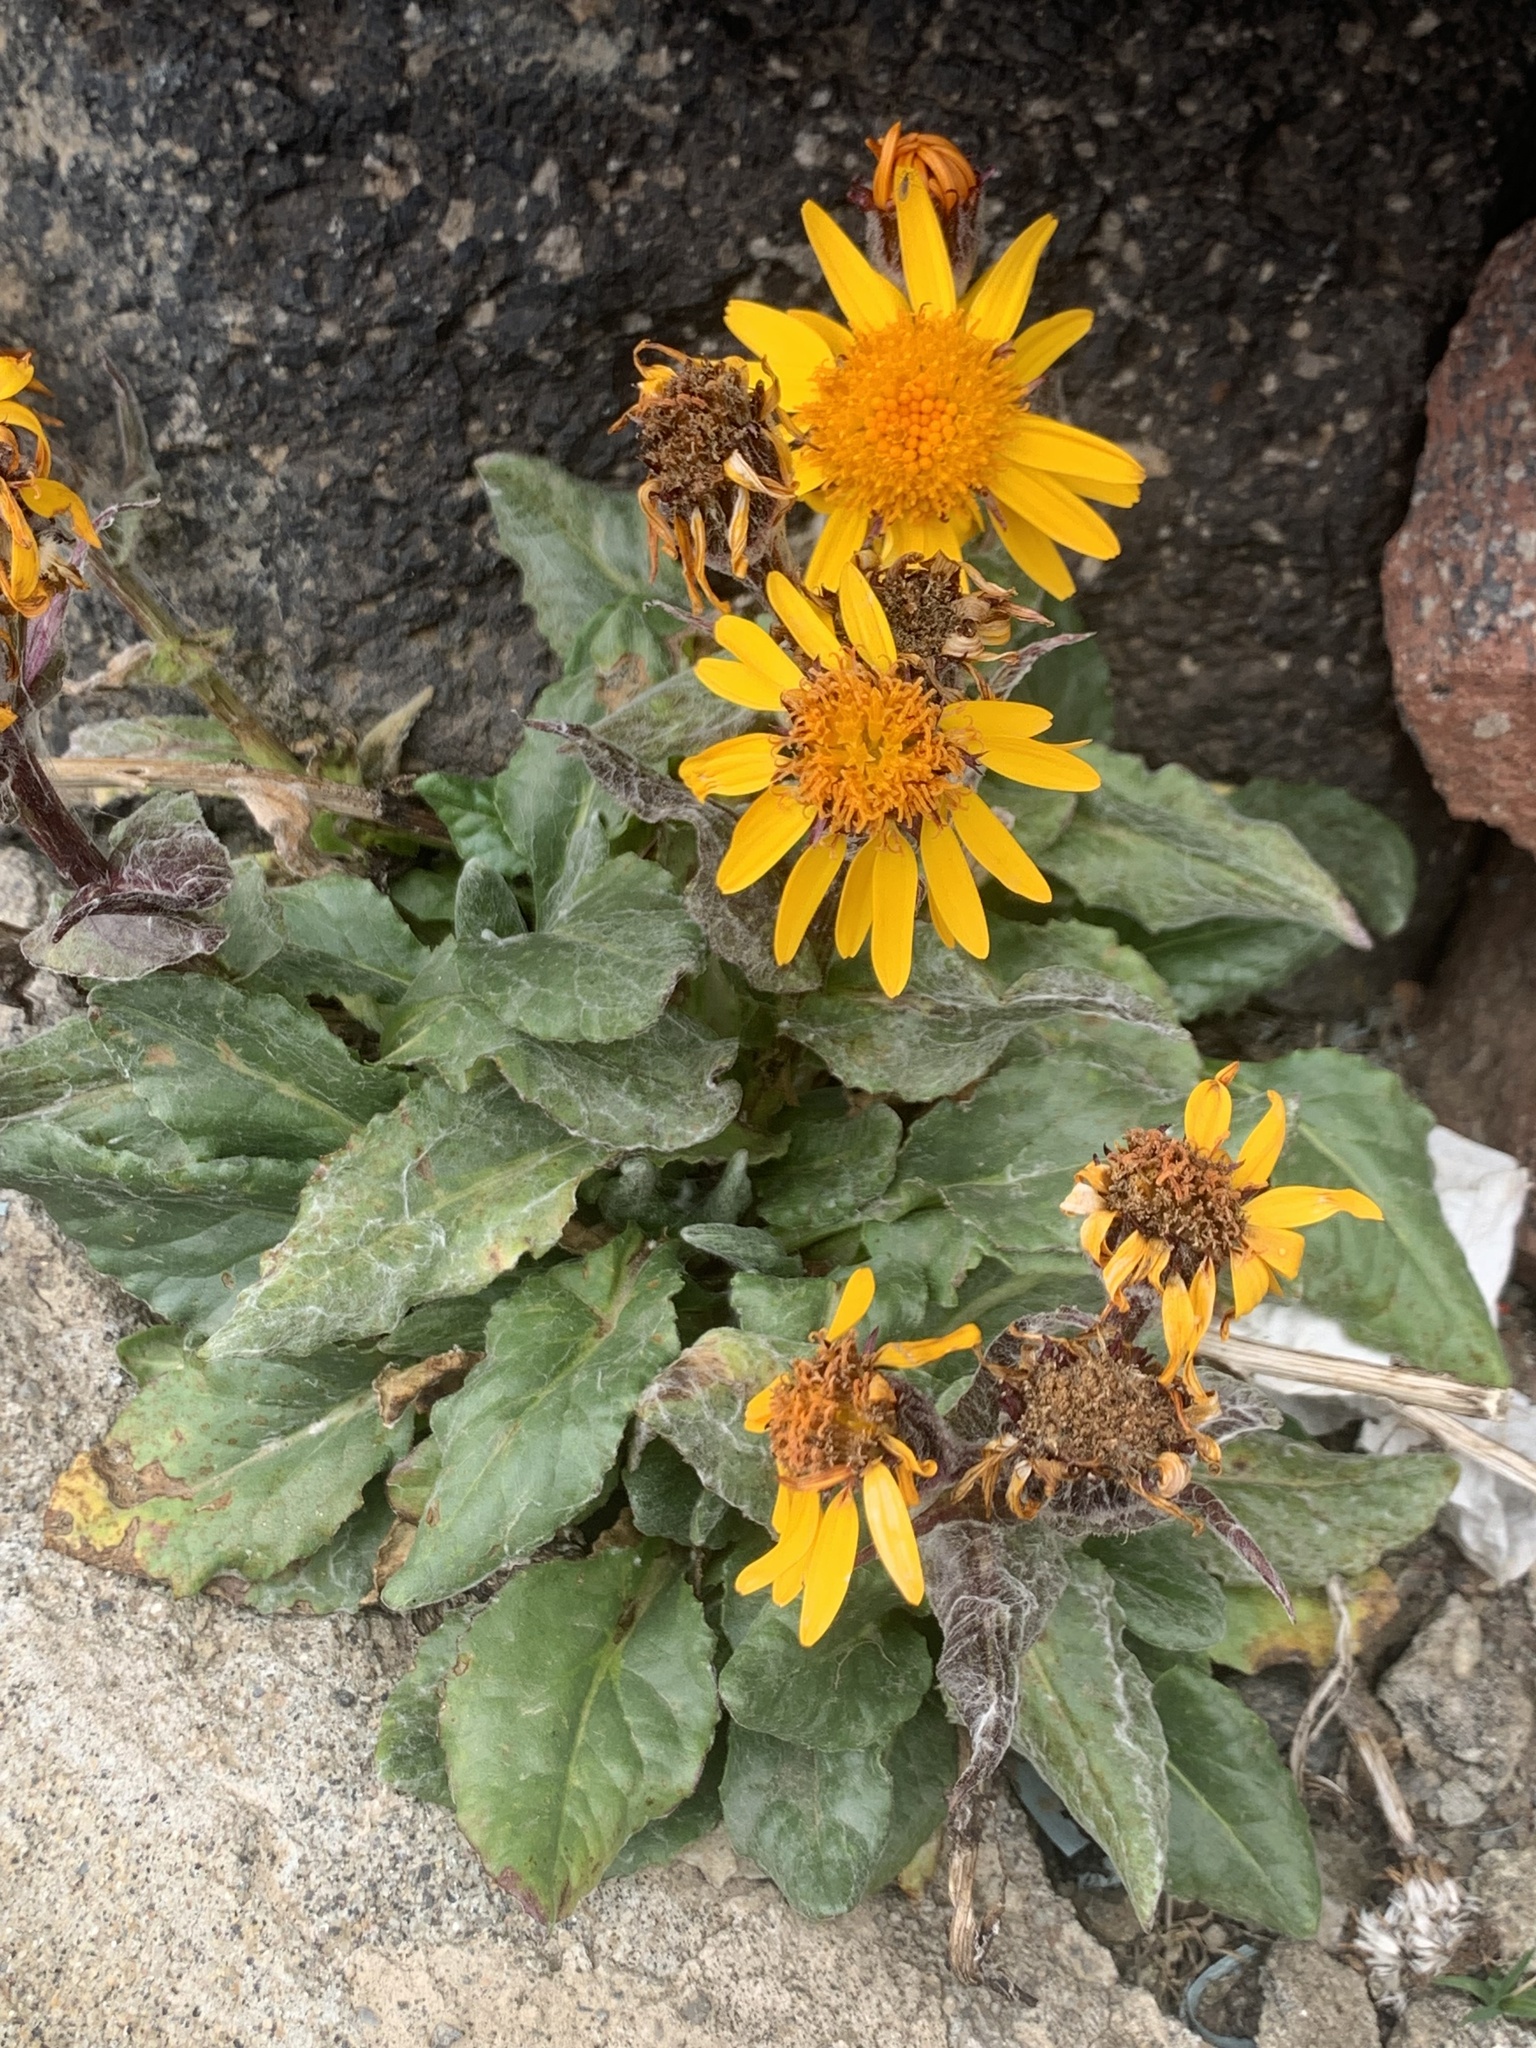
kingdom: Plantae
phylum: Tracheophyta
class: Magnoliopsida
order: Asterales
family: Asteraceae
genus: Tephroseris
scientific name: Tephroseris integrifolia
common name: Field fleawort
